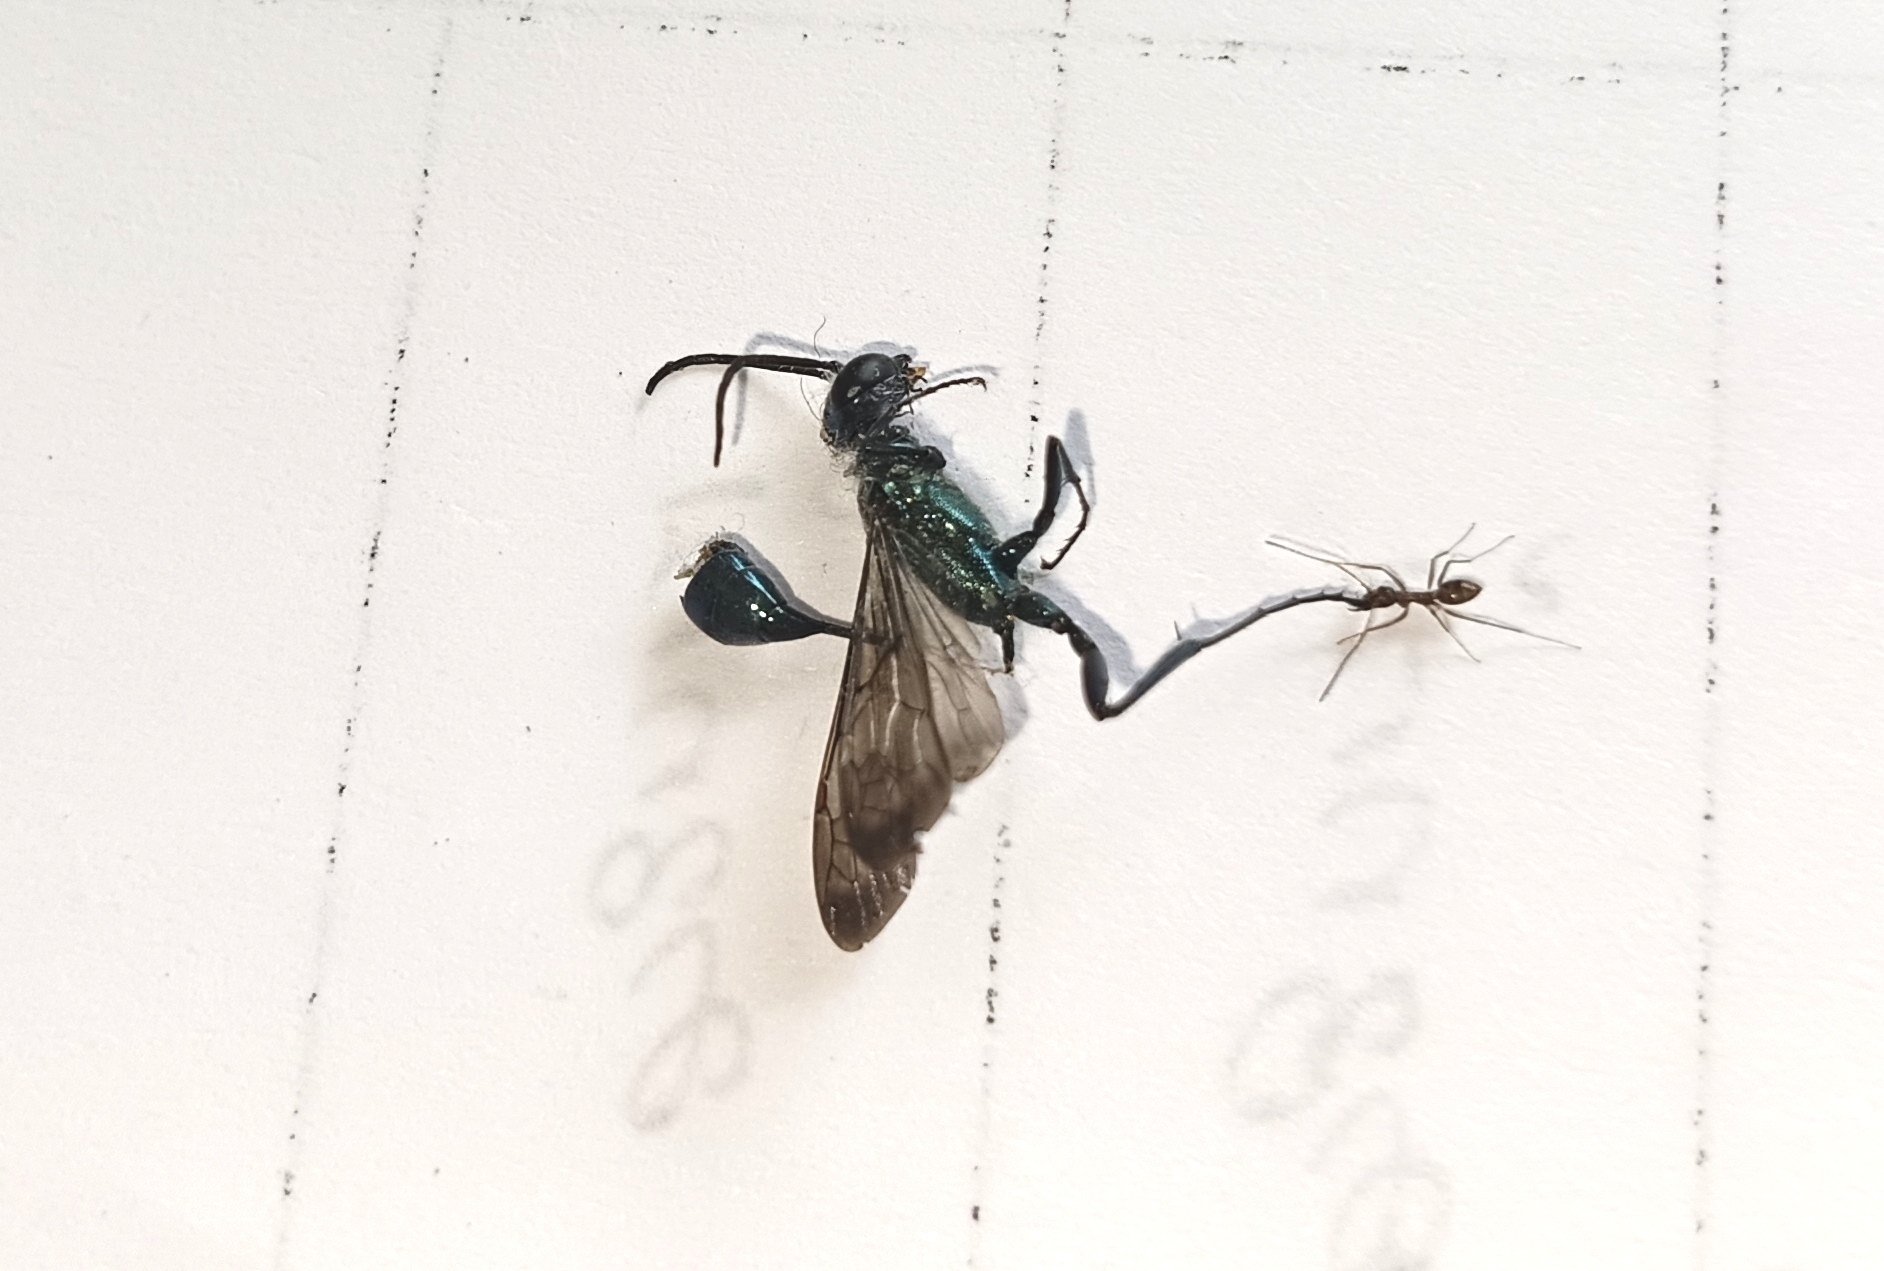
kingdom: Animalia
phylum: Arthropoda
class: Insecta
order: Hymenoptera
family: Sphecidae
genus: Chalybion
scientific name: Chalybion
